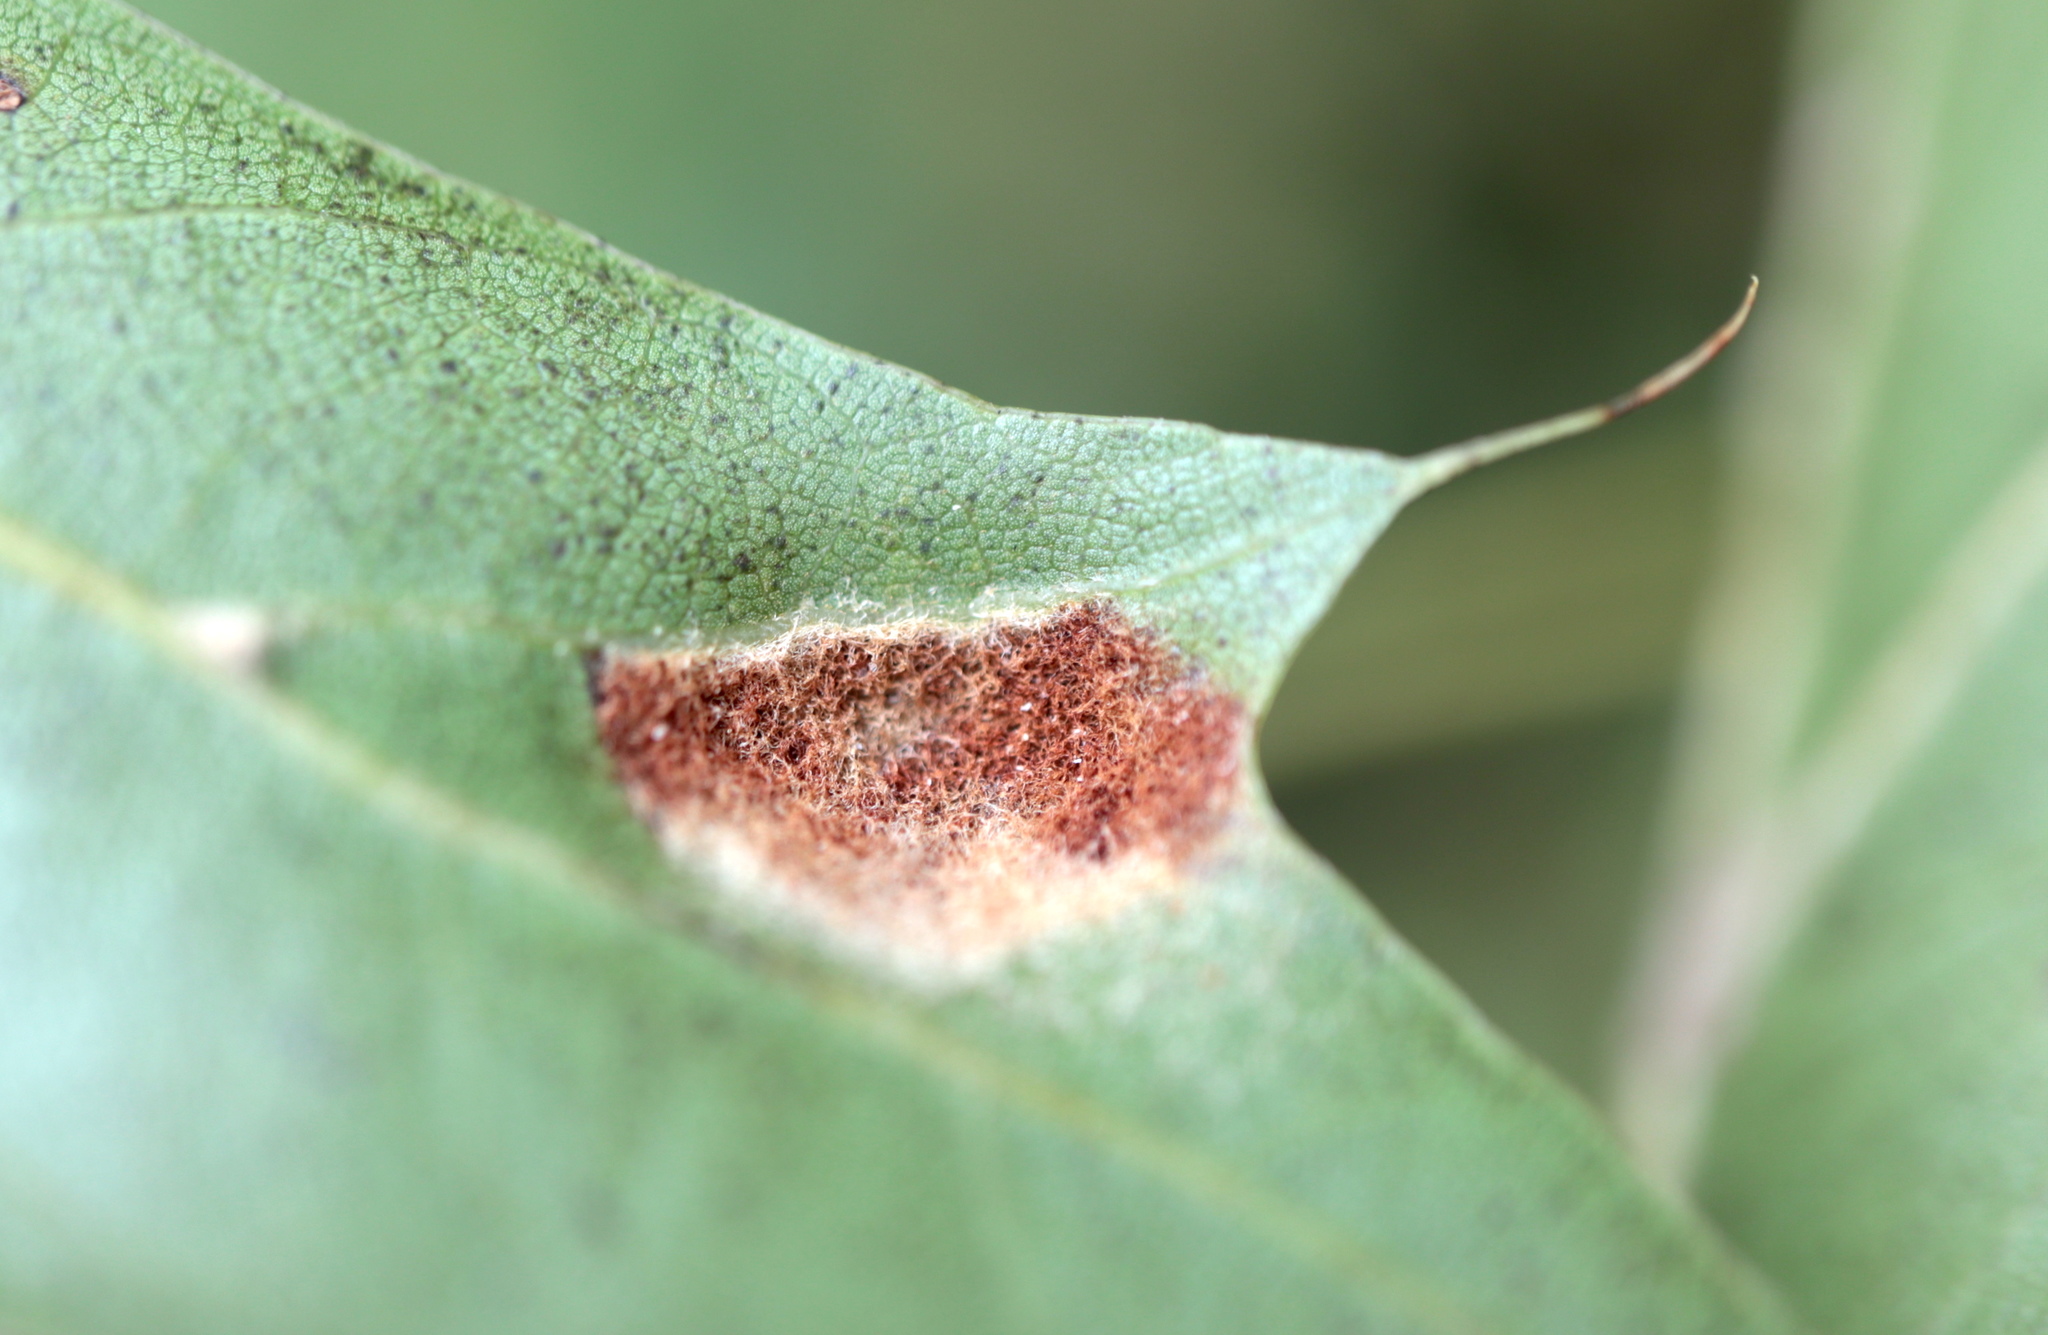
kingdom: Animalia
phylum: Arthropoda
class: Arachnida
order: Trombidiformes
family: Eriophyidae
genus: Aceria
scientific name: Aceria
